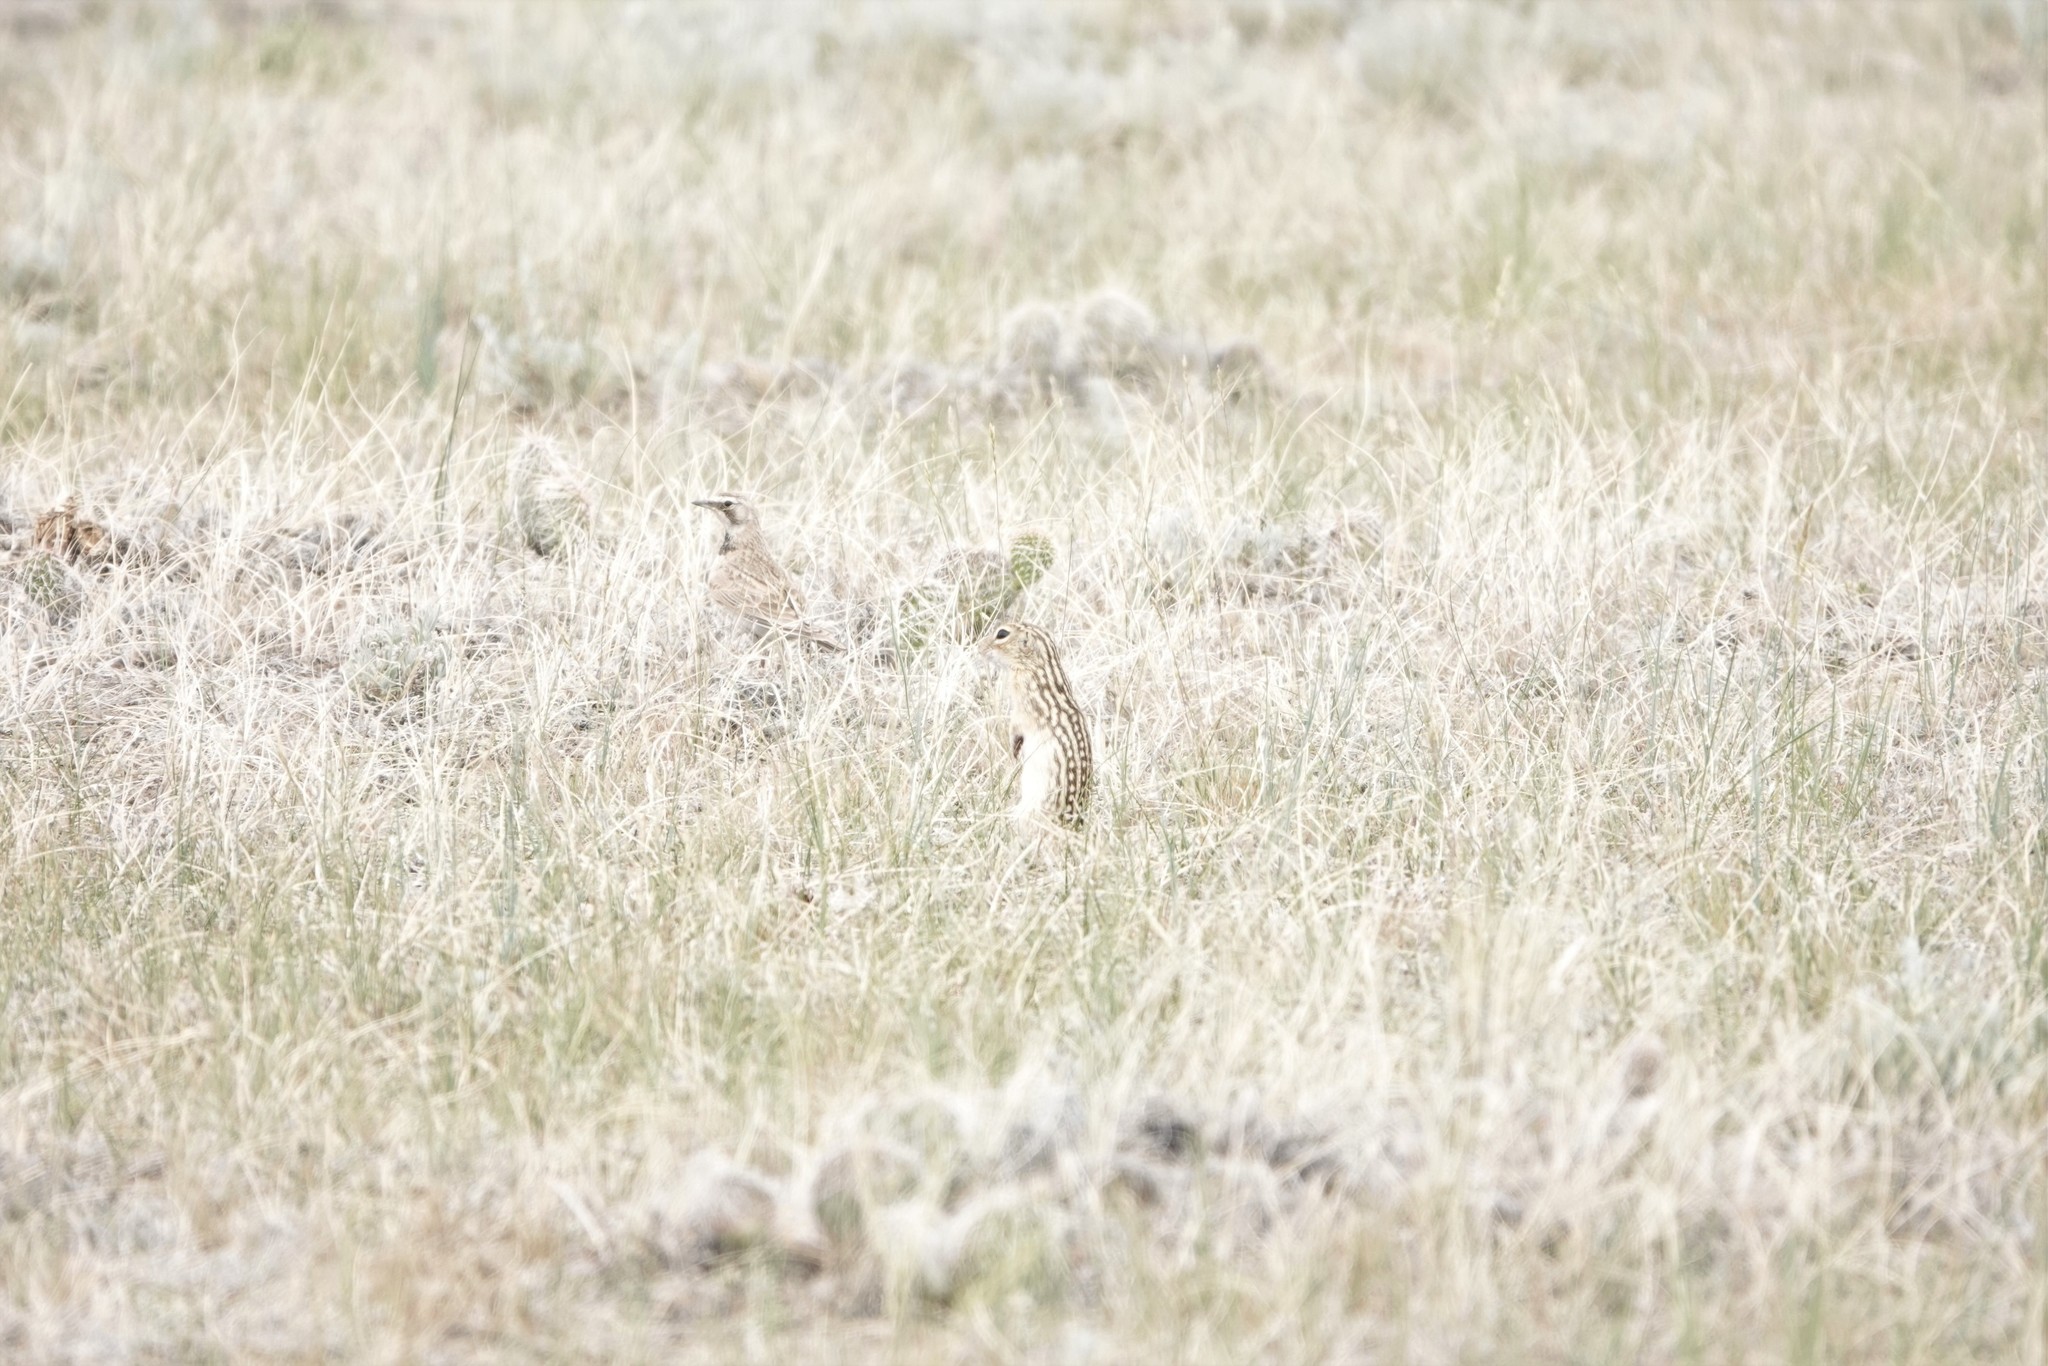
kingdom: Animalia
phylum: Chordata
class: Mammalia
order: Rodentia
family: Sciuridae
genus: Ictidomys
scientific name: Ictidomys tridecemlineatus
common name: Thirteen-lined ground squirrel
